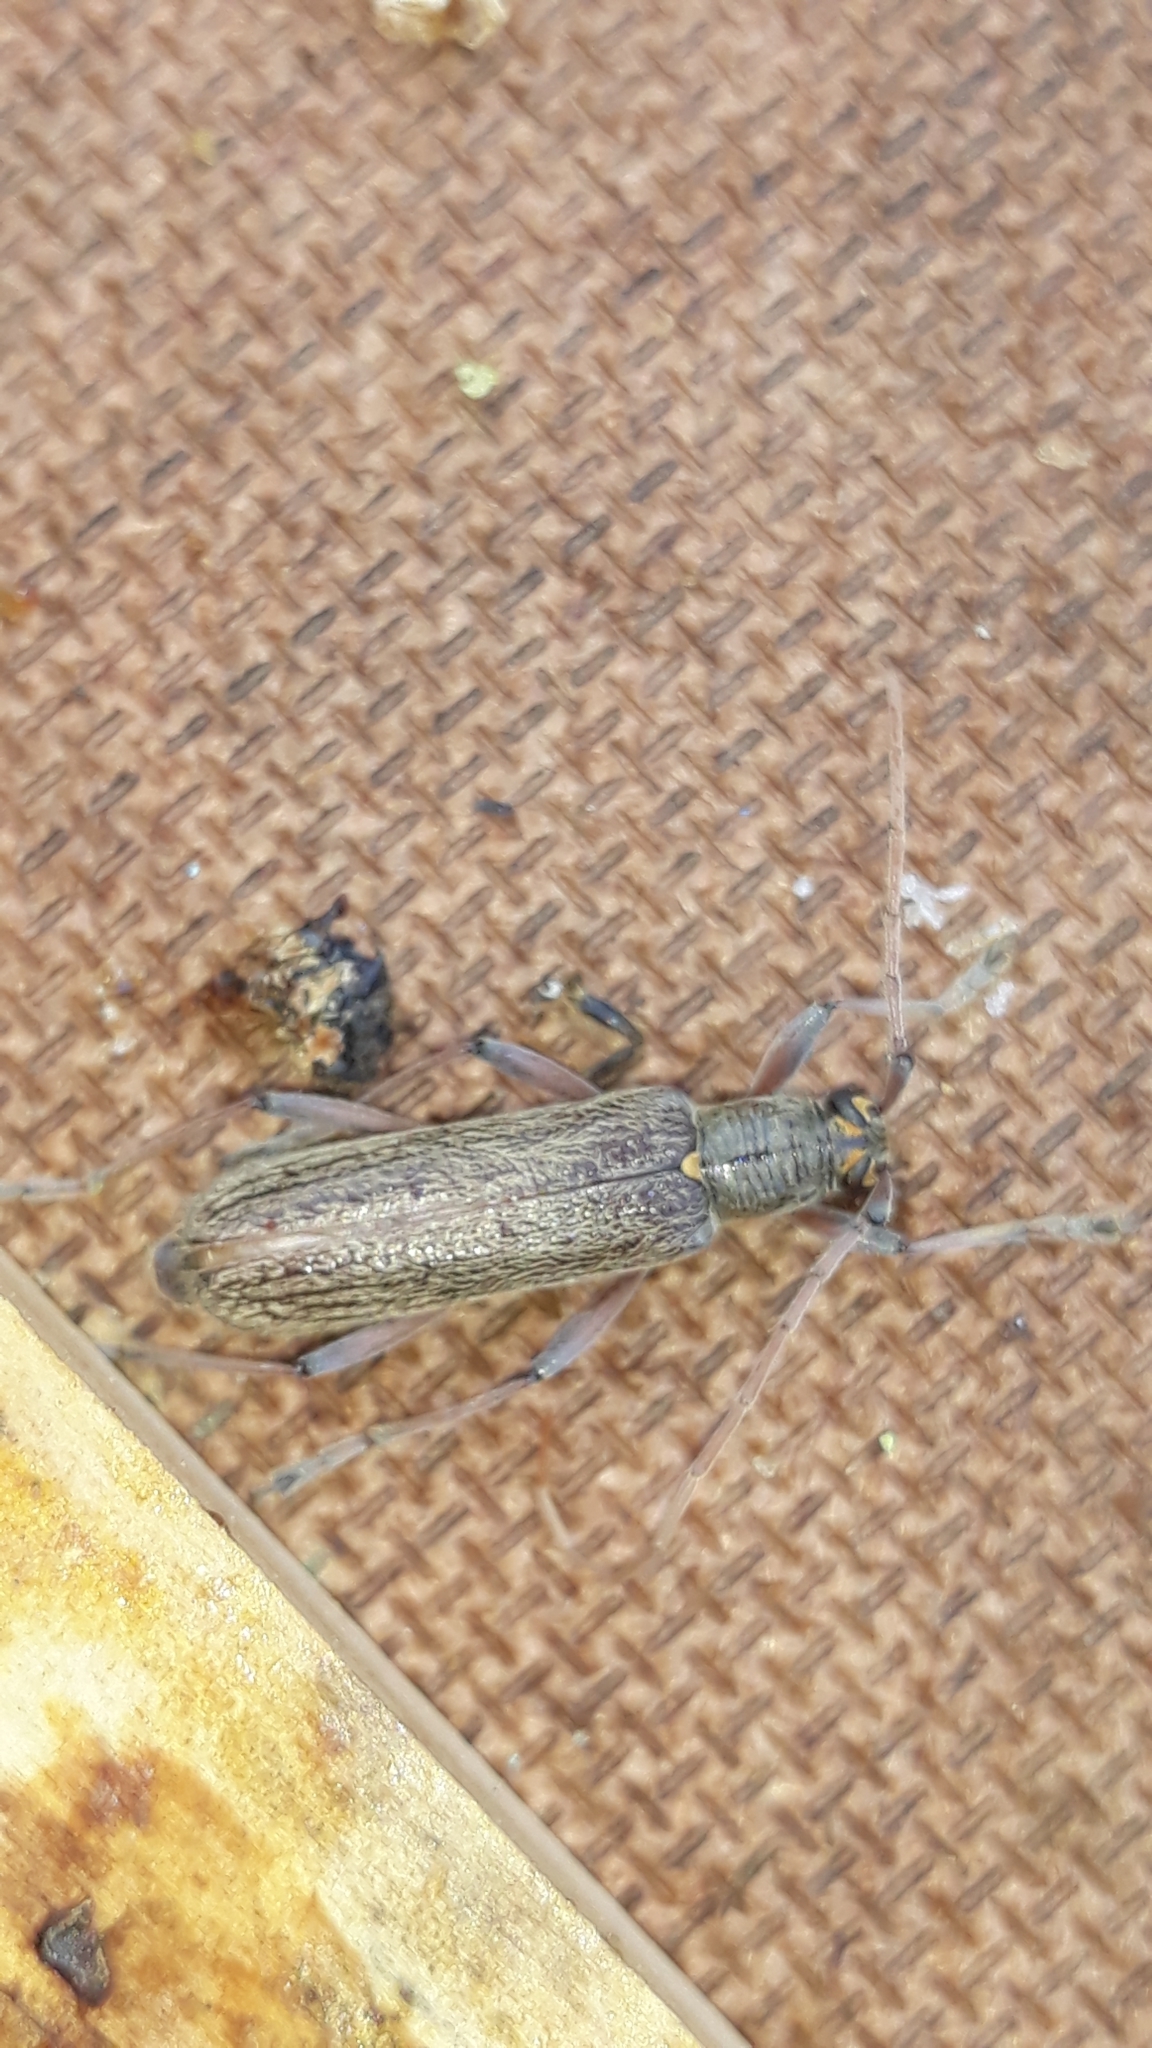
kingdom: Animalia
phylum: Arthropoda
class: Insecta
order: Coleoptera
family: Cerambycidae
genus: Oemona
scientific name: Oemona hirta
